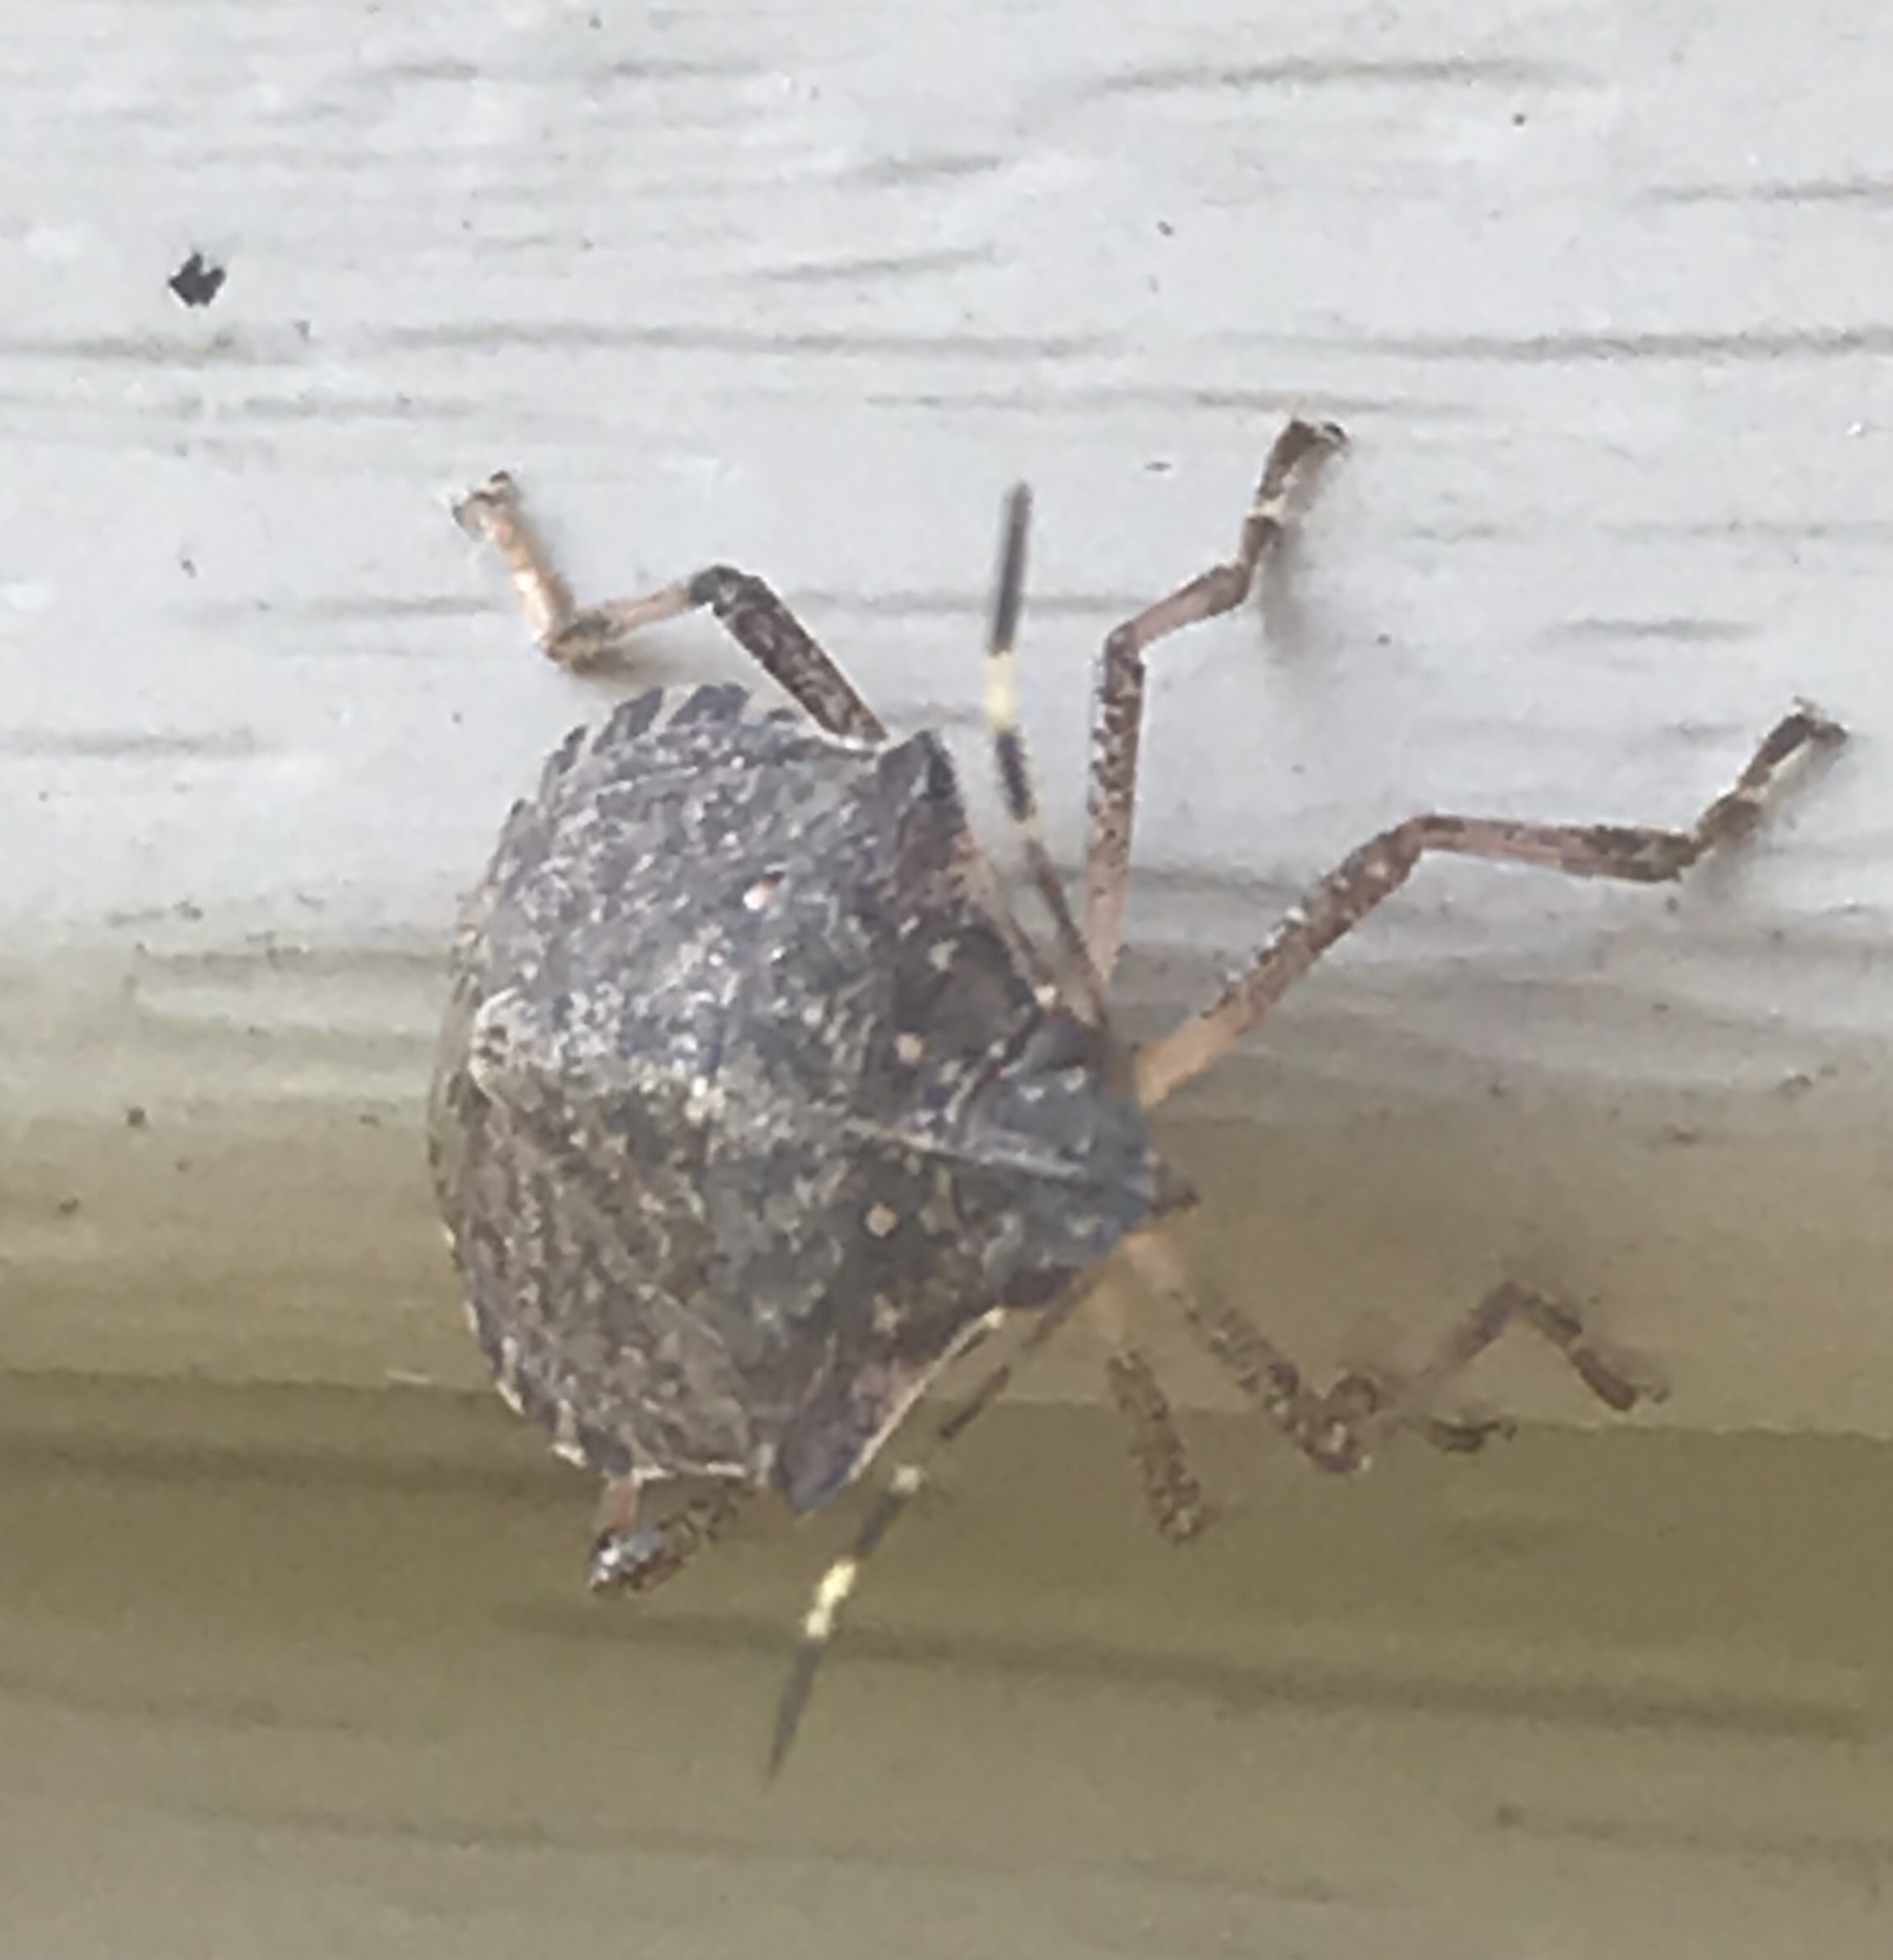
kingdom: Animalia
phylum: Arthropoda
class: Insecta
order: Hemiptera
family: Pentatomidae
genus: Halyomorpha
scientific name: Halyomorpha halys
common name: Brown marmorated stink bug
